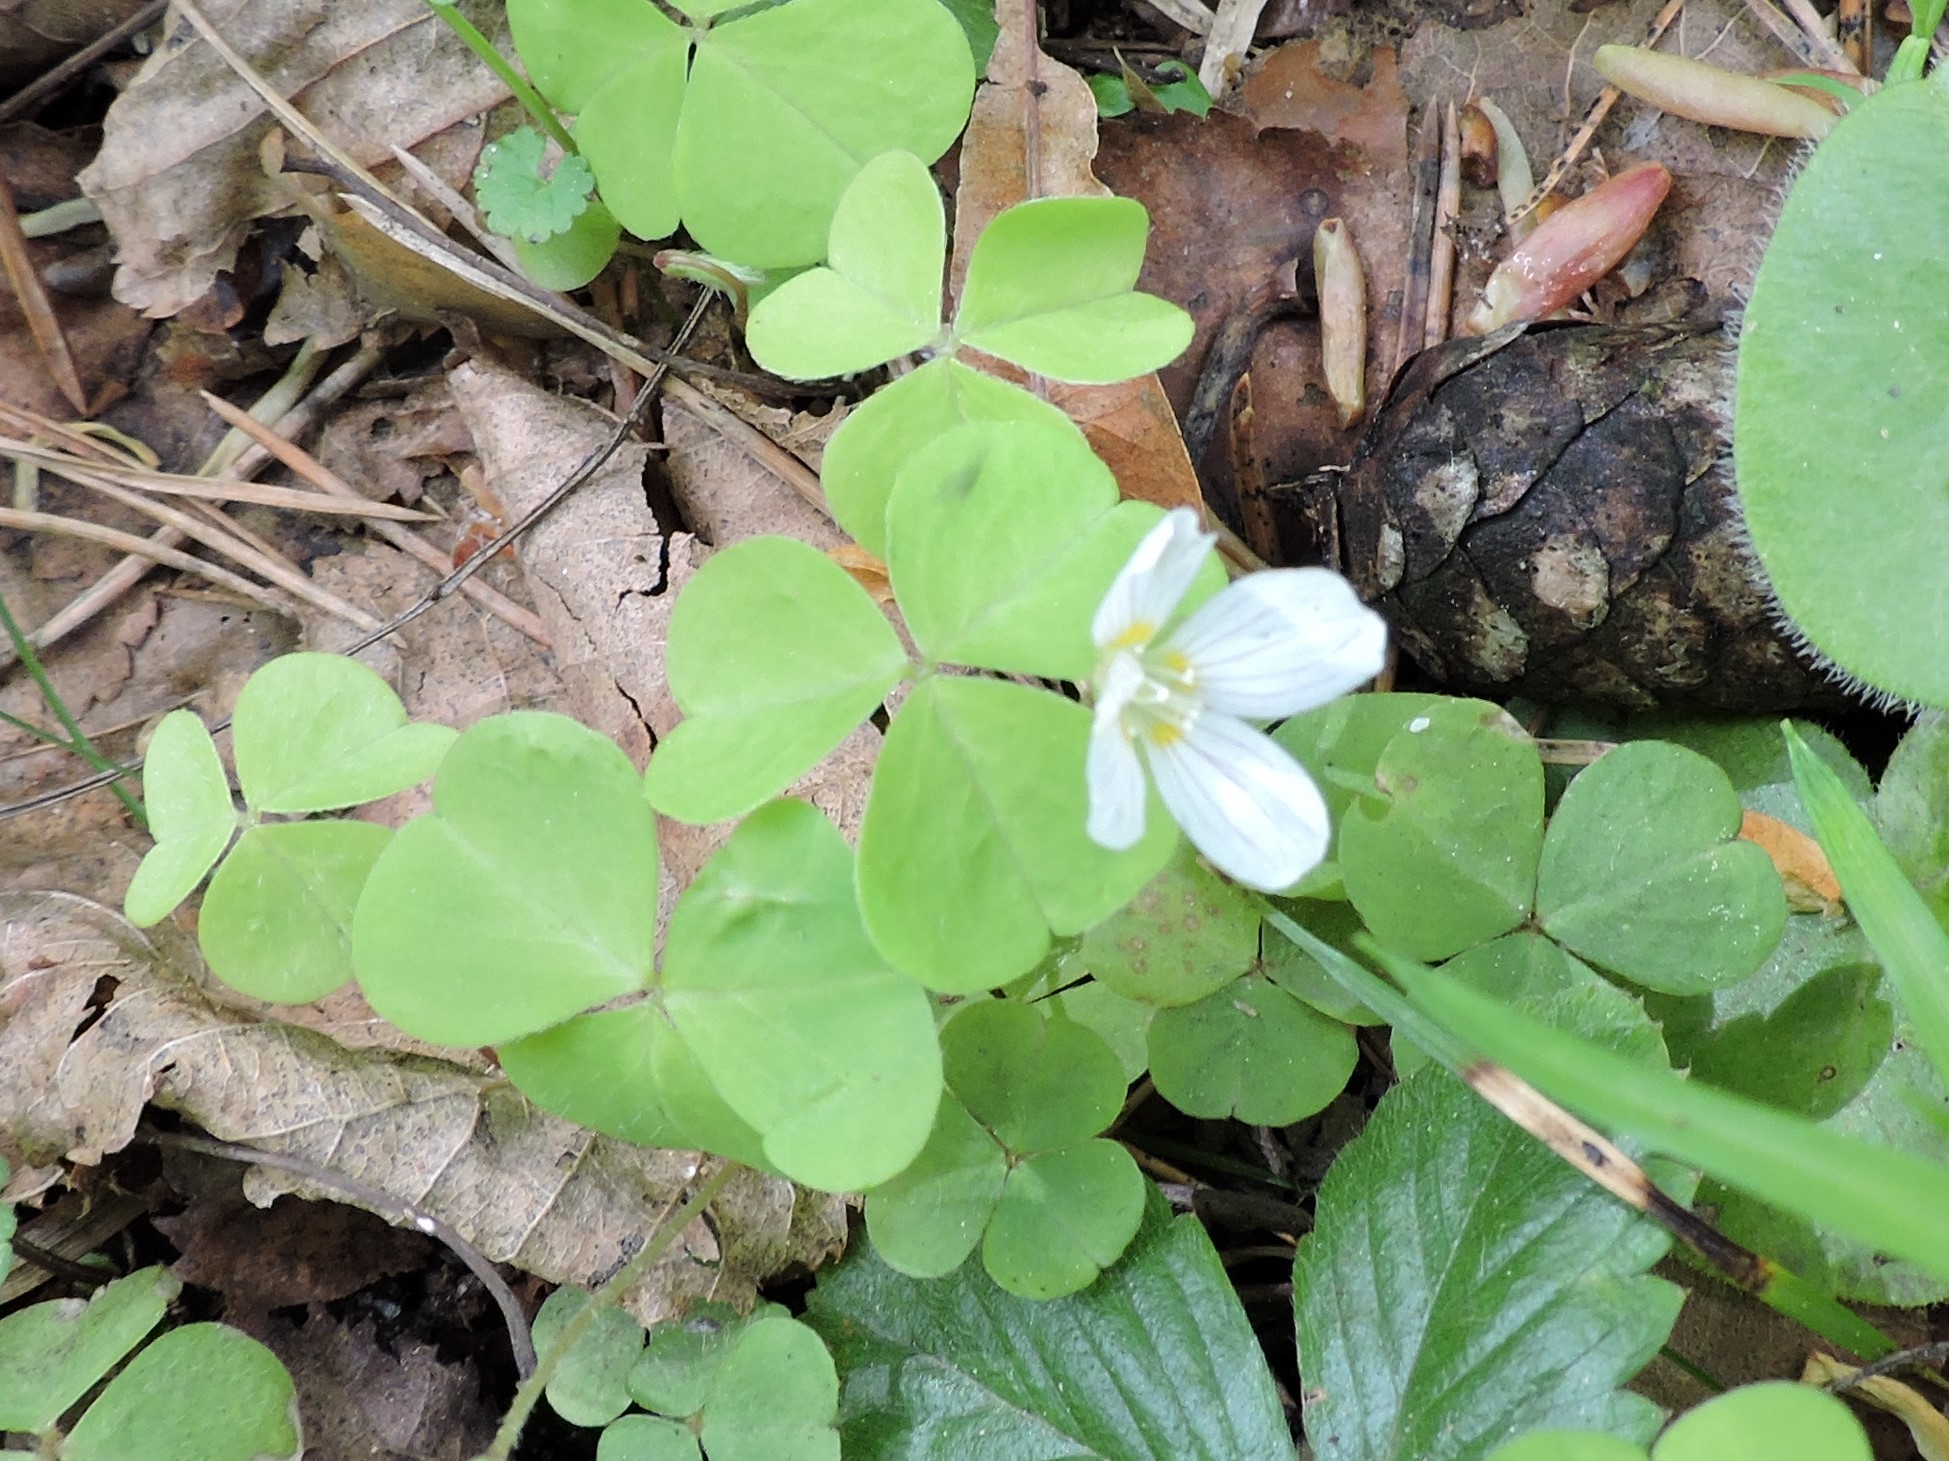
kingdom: Plantae
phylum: Tracheophyta
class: Magnoliopsida
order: Oxalidales
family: Oxalidaceae
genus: Oxalis
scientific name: Oxalis acetosella
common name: Wood-sorrel
